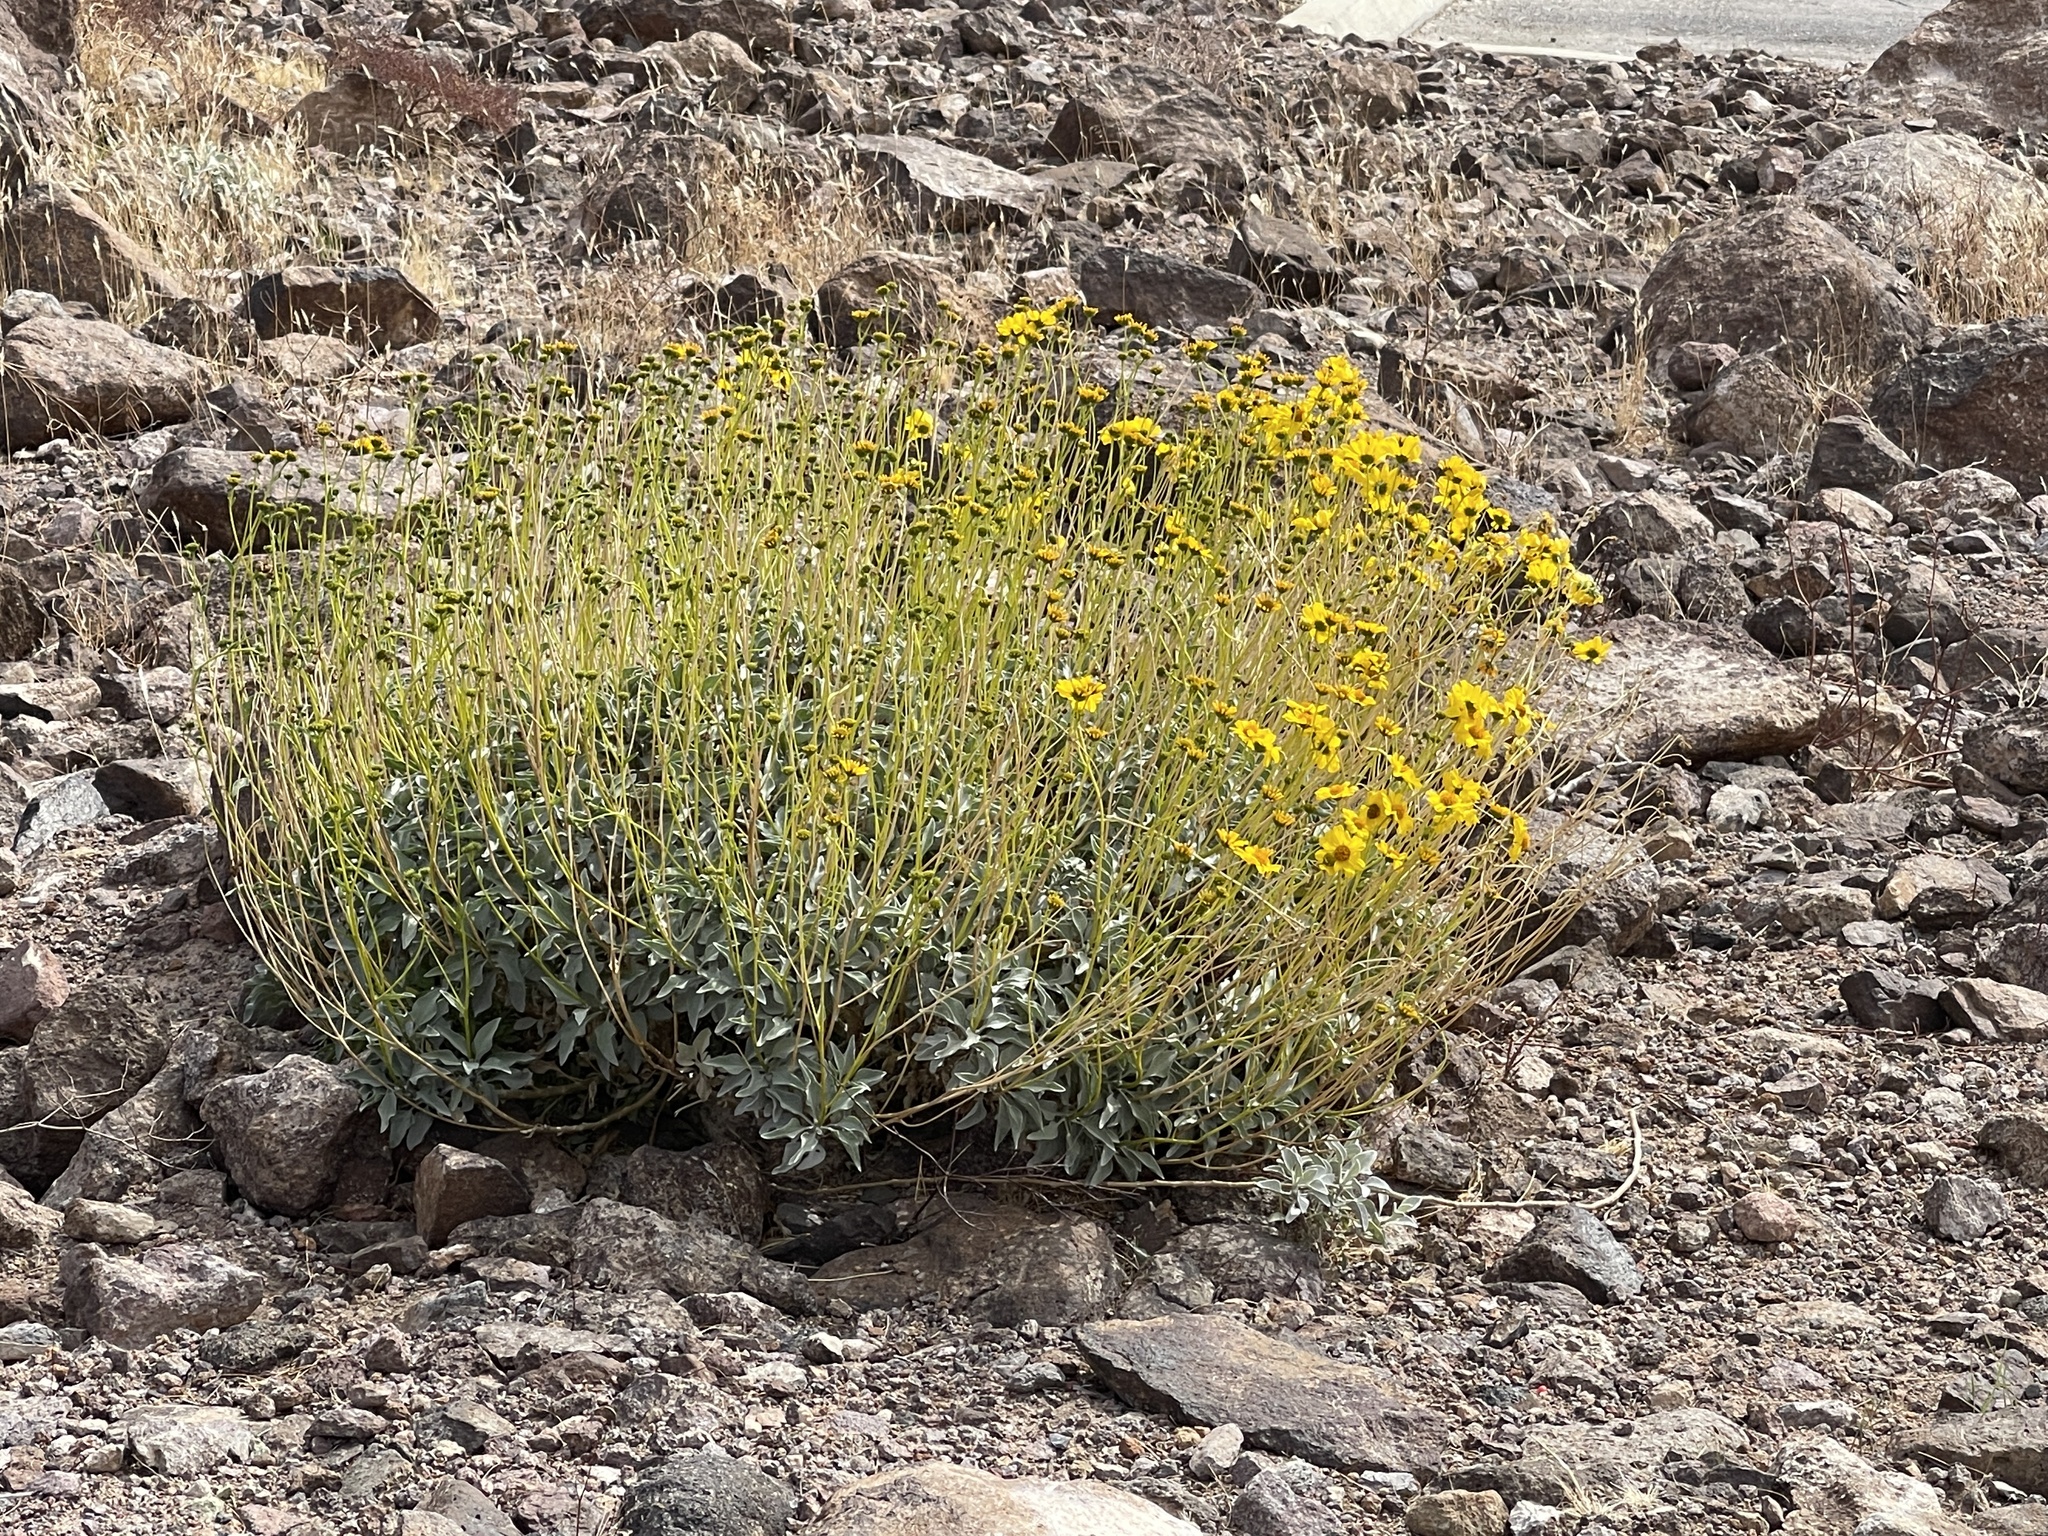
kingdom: Plantae
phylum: Tracheophyta
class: Magnoliopsida
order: Asterales
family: Asteraceae
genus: Encelia
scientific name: Encelia farinosa
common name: Brittlebush
